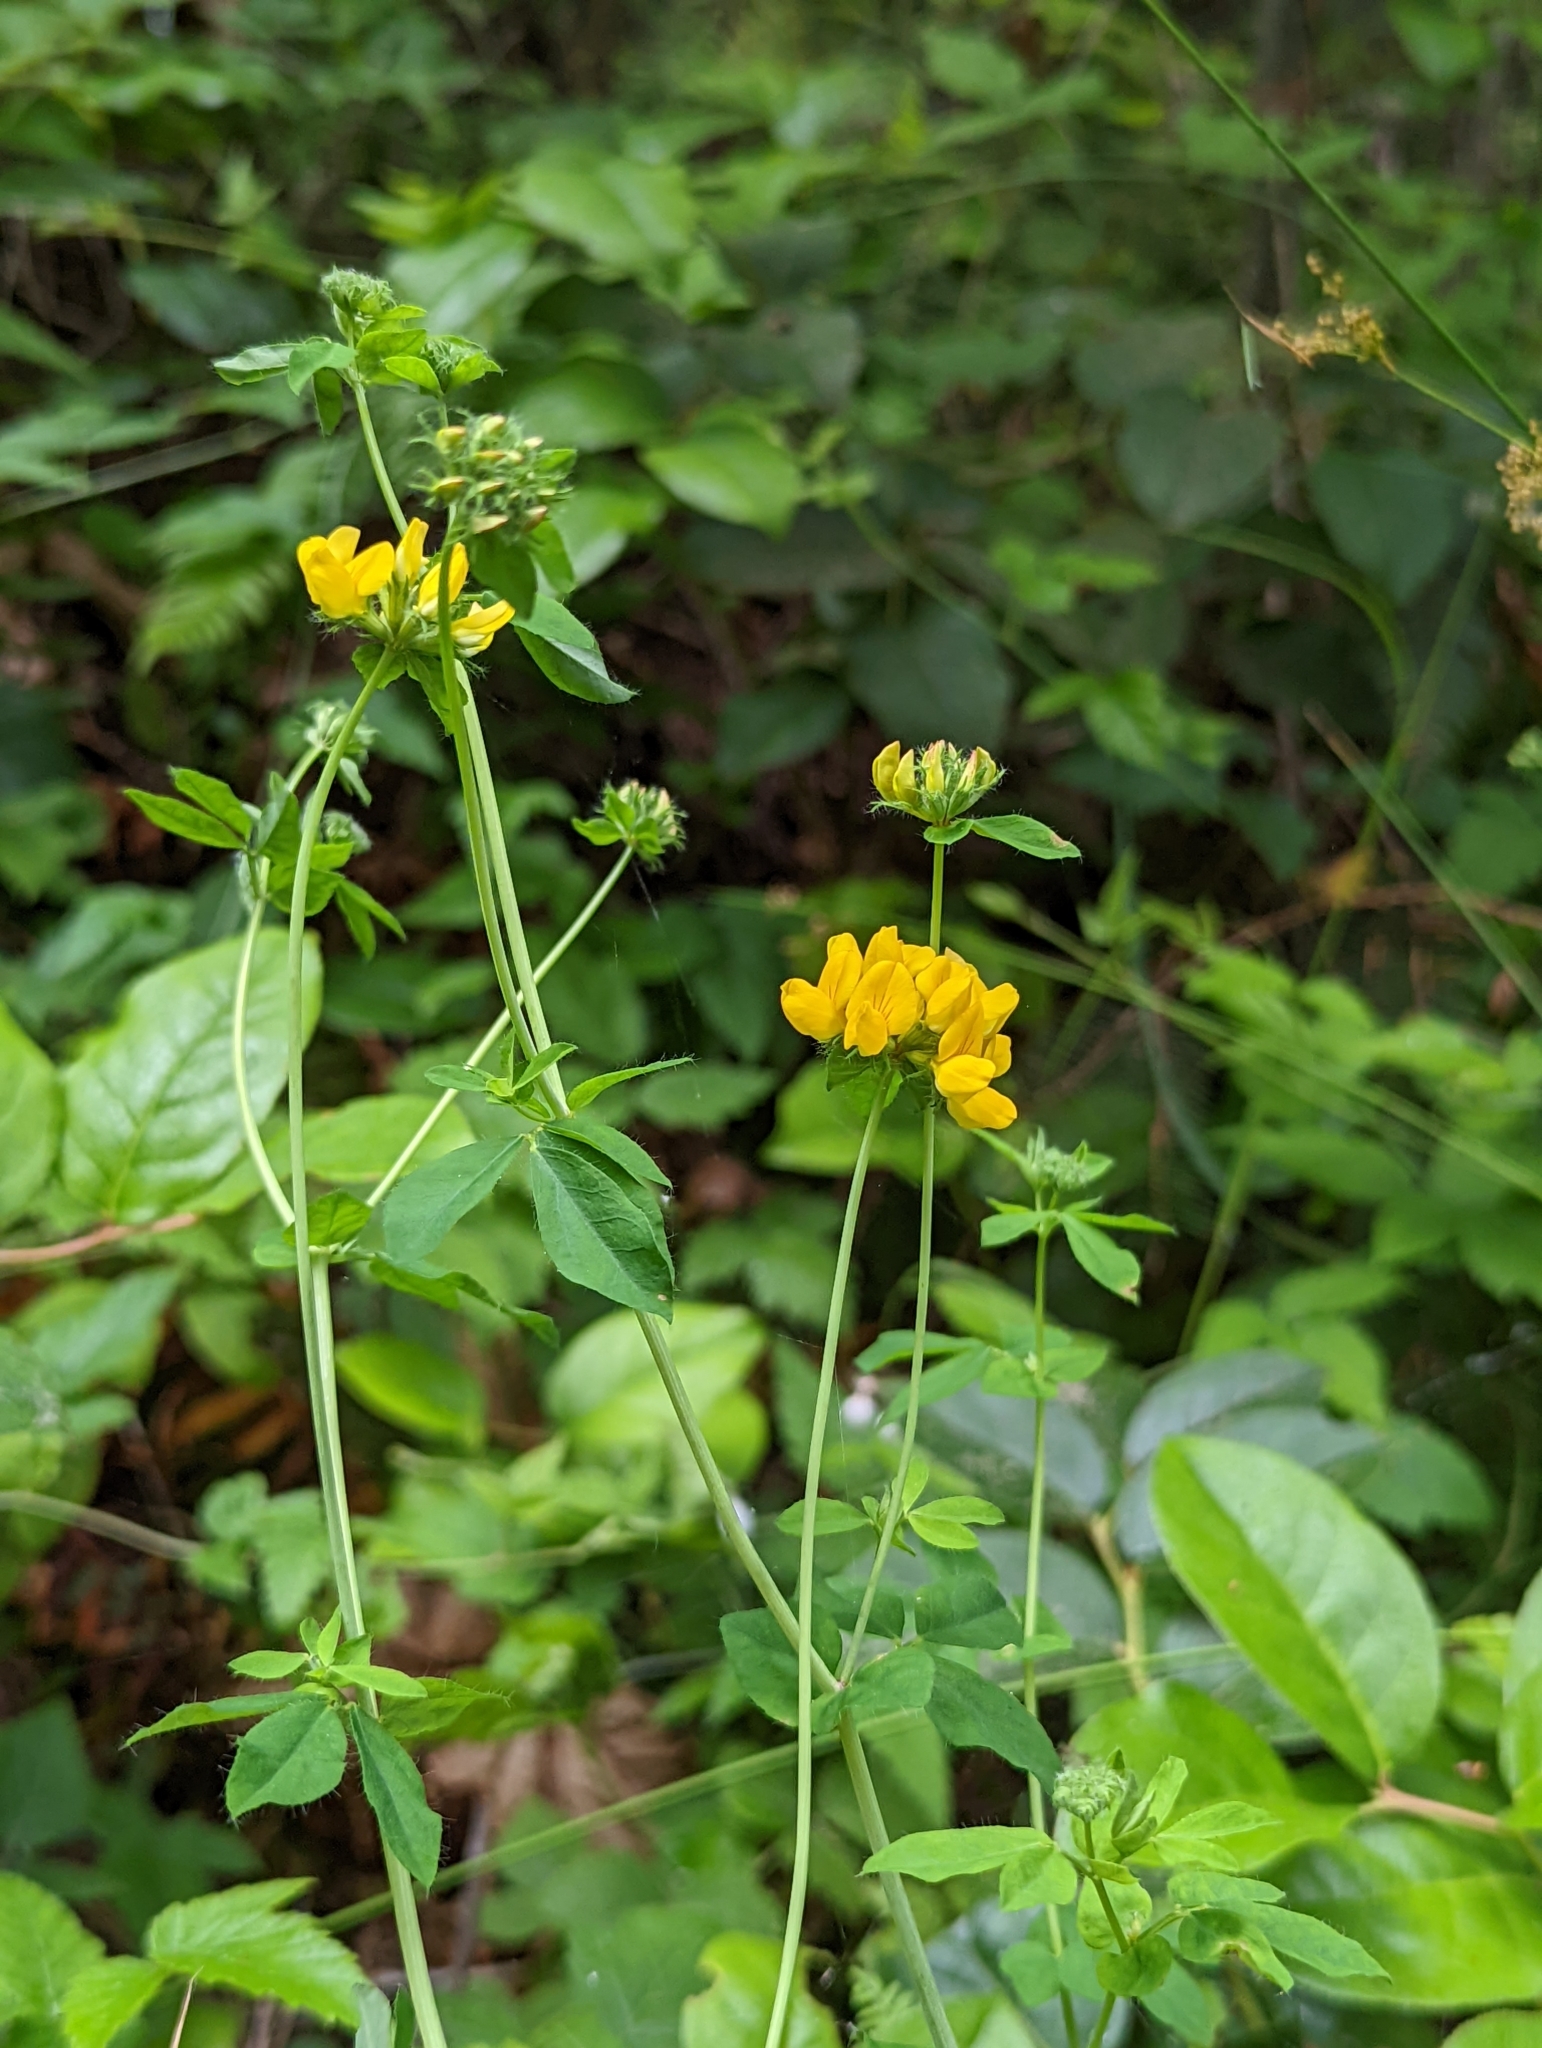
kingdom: Plantae
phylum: Tracheophyta
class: Magnoliopsida
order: Fabales
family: Fabaceae
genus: Lotus
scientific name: Lotus
